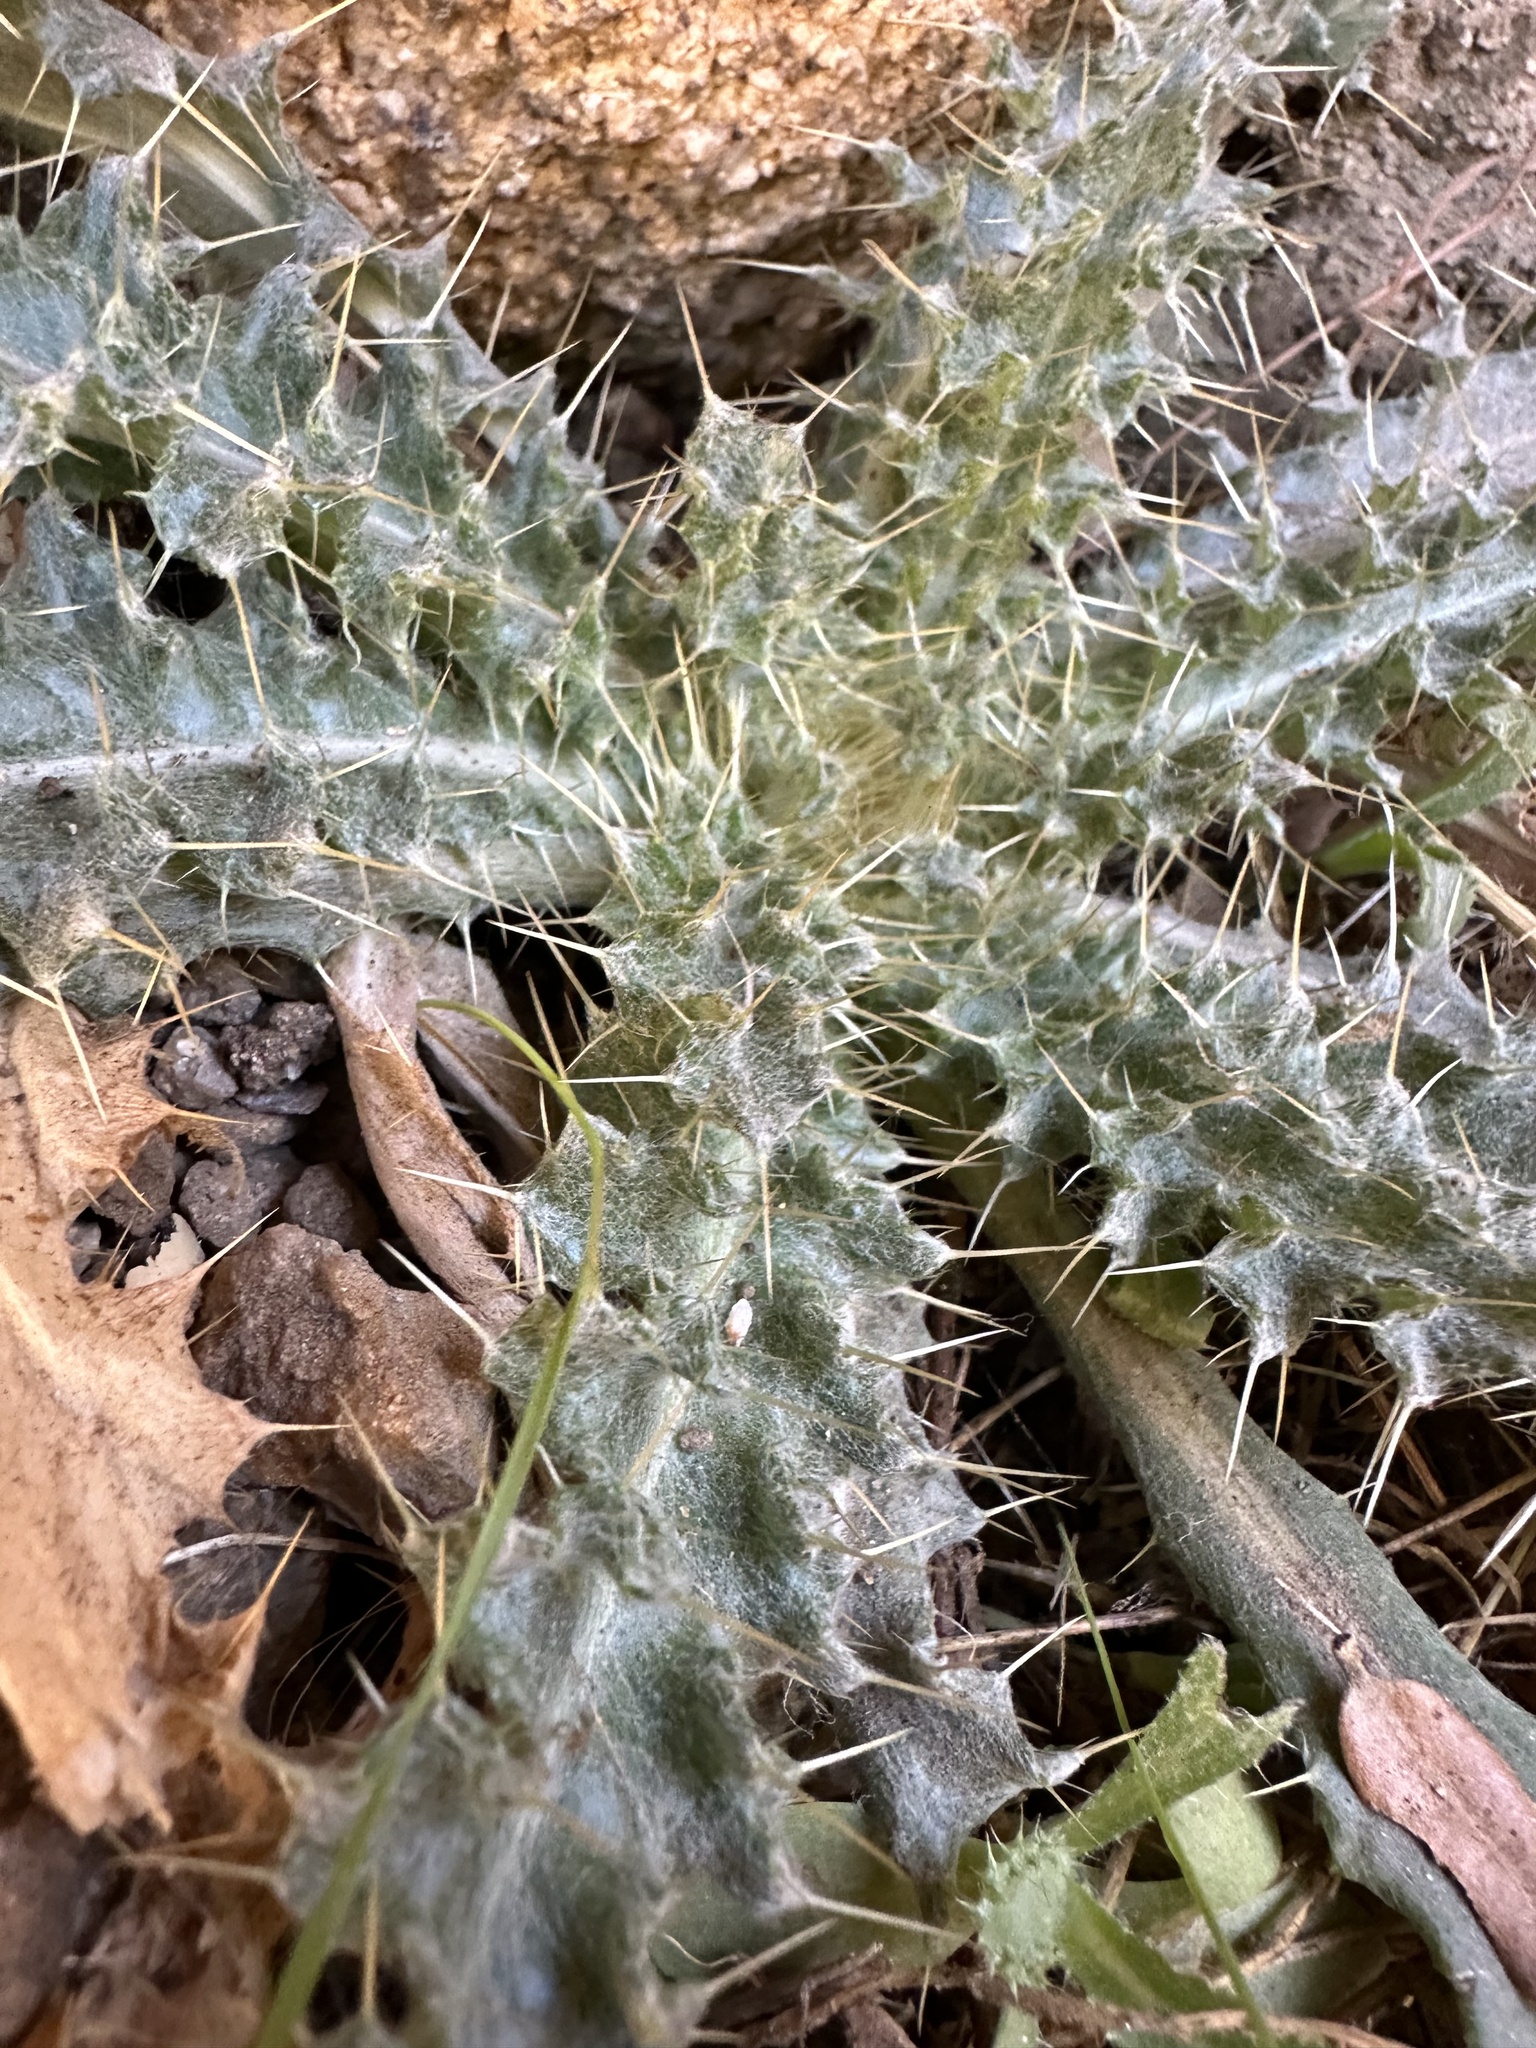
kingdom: Plantae
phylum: Tracheophyta
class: Magnoliopsida
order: Asterales
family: Asteraceae
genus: Cirsium
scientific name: Cirsium neomexicanum
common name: New mexico thistle
